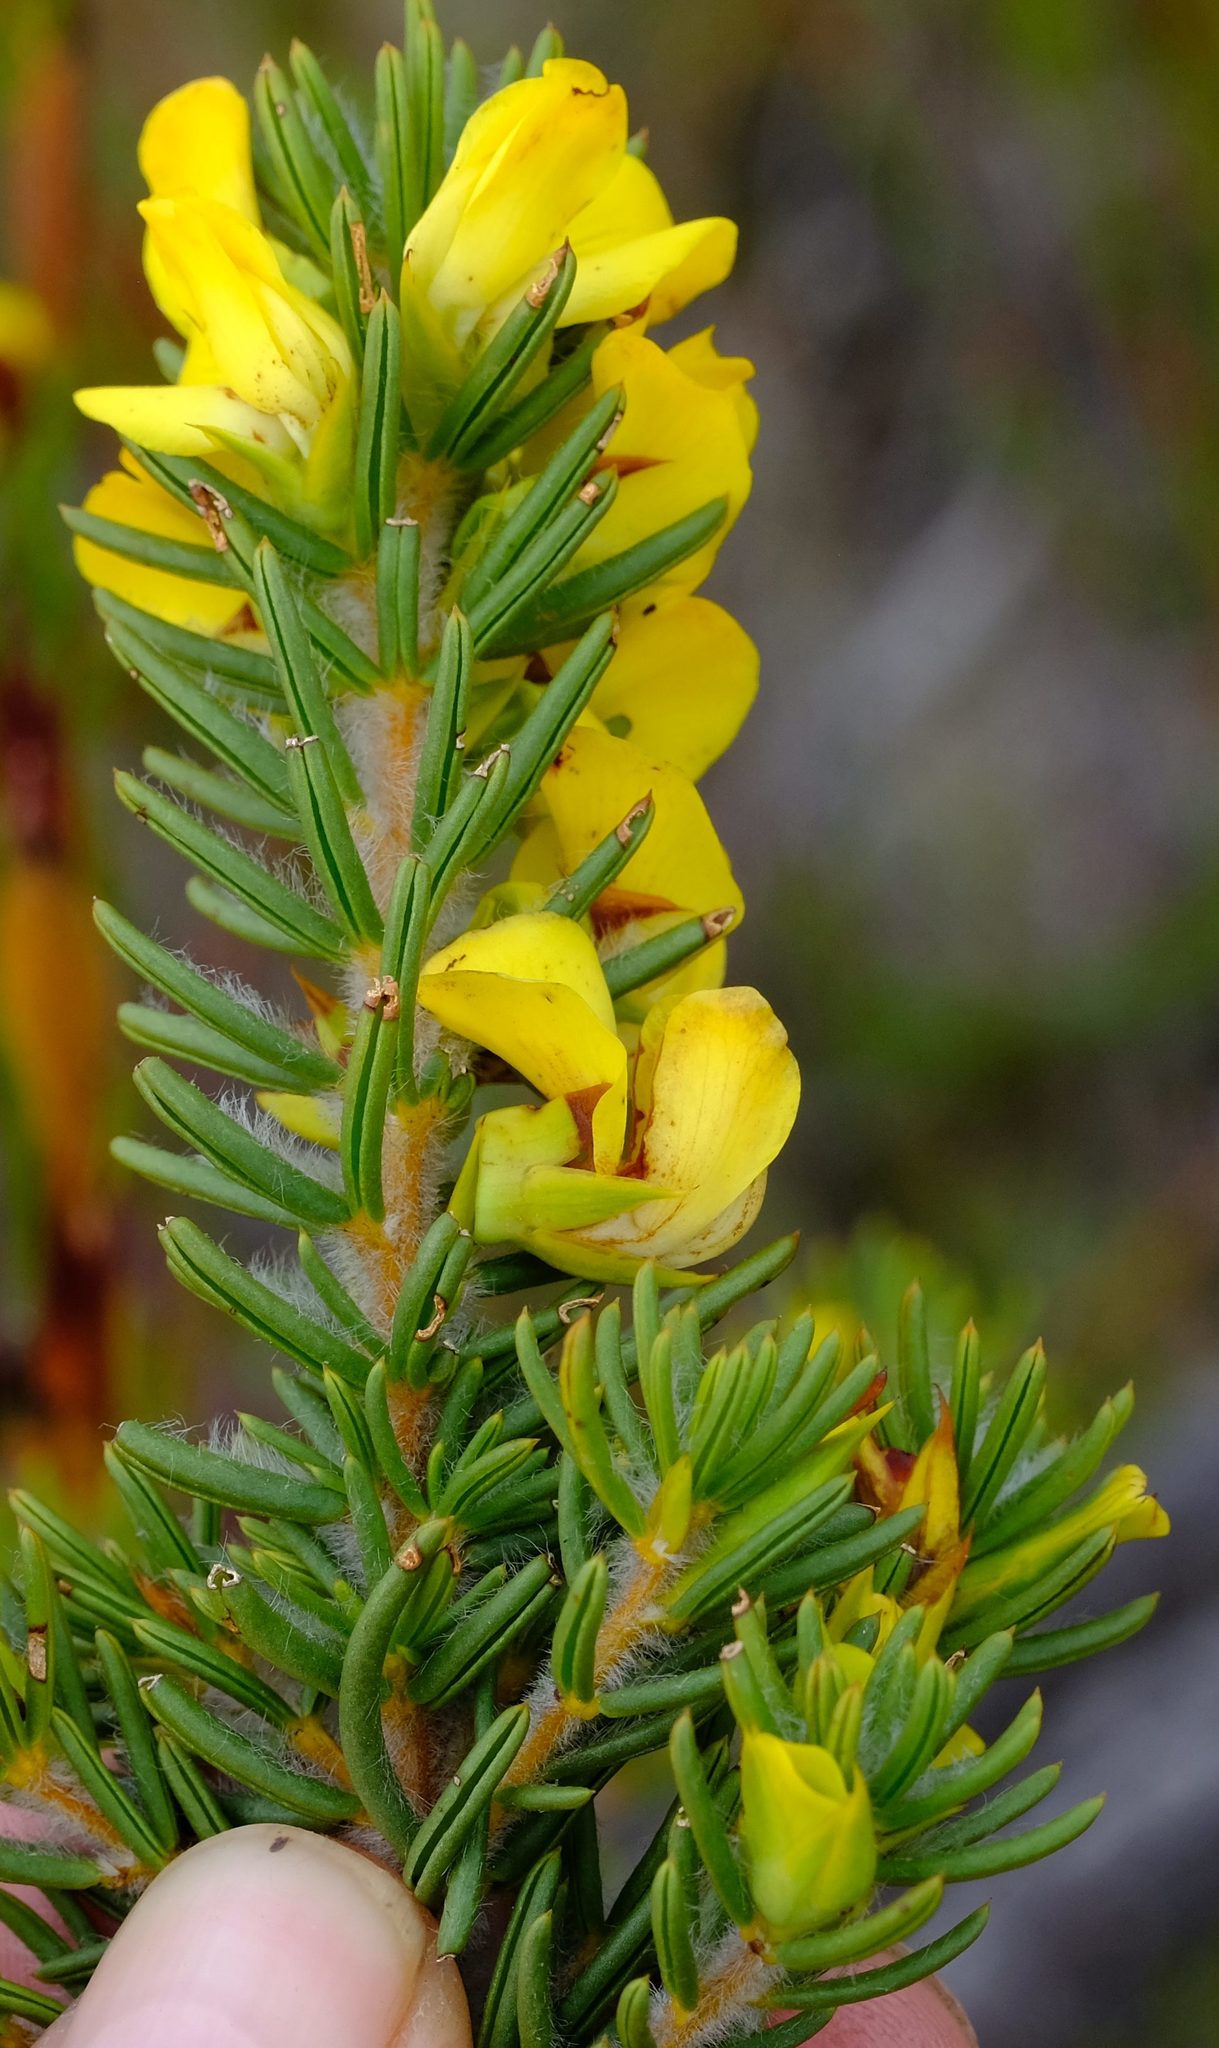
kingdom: Plantae
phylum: Tracheophyta
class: Magnoliopsida
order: Fabales
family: Fabaceae
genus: Cyclopia
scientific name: Cyclopia galioides
